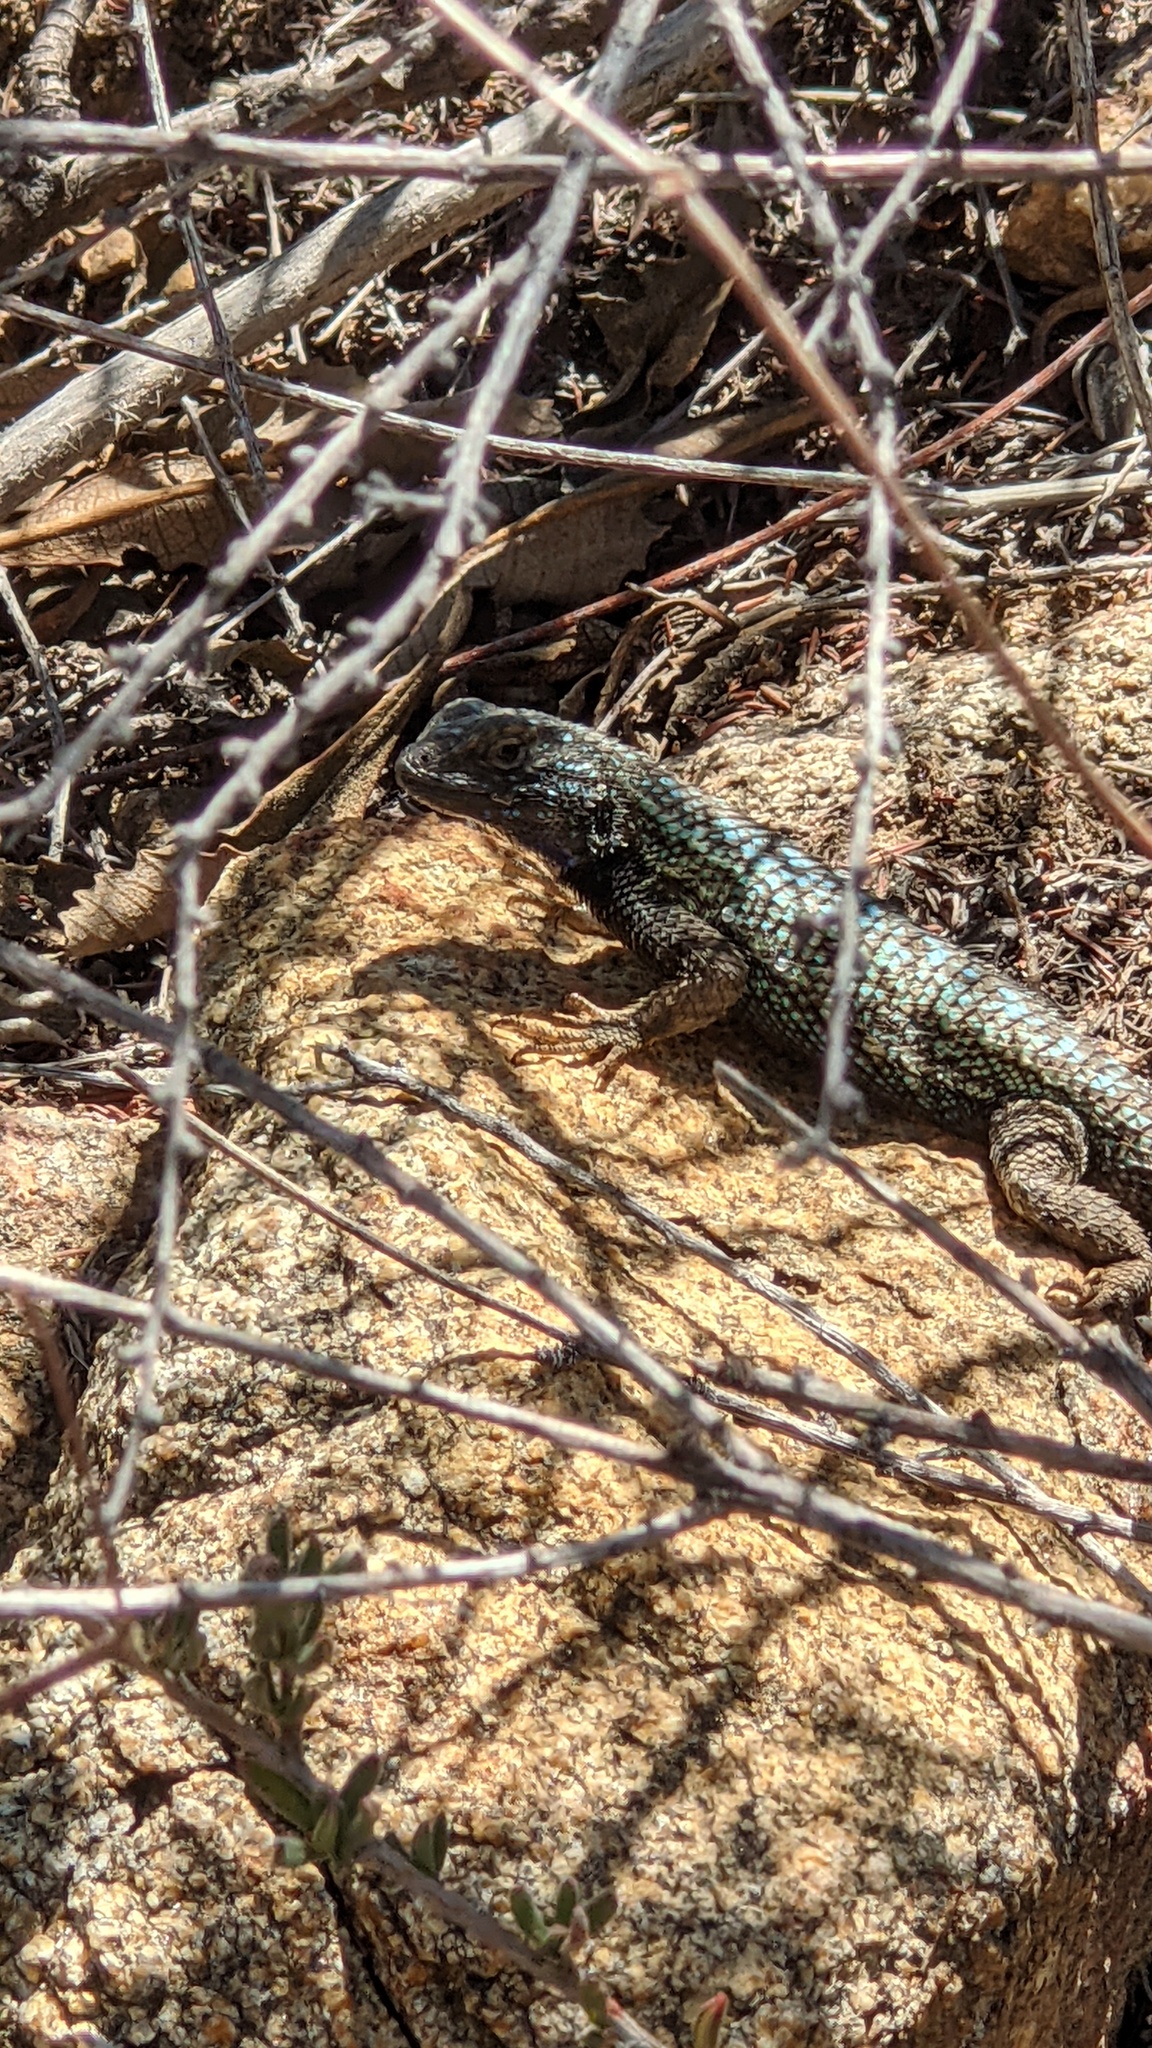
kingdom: Animalia
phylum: Chordata
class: Squamata
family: Phrynosomatidae
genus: Sceloporus
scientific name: Sceloporus occidentalis
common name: Western fence lizard
